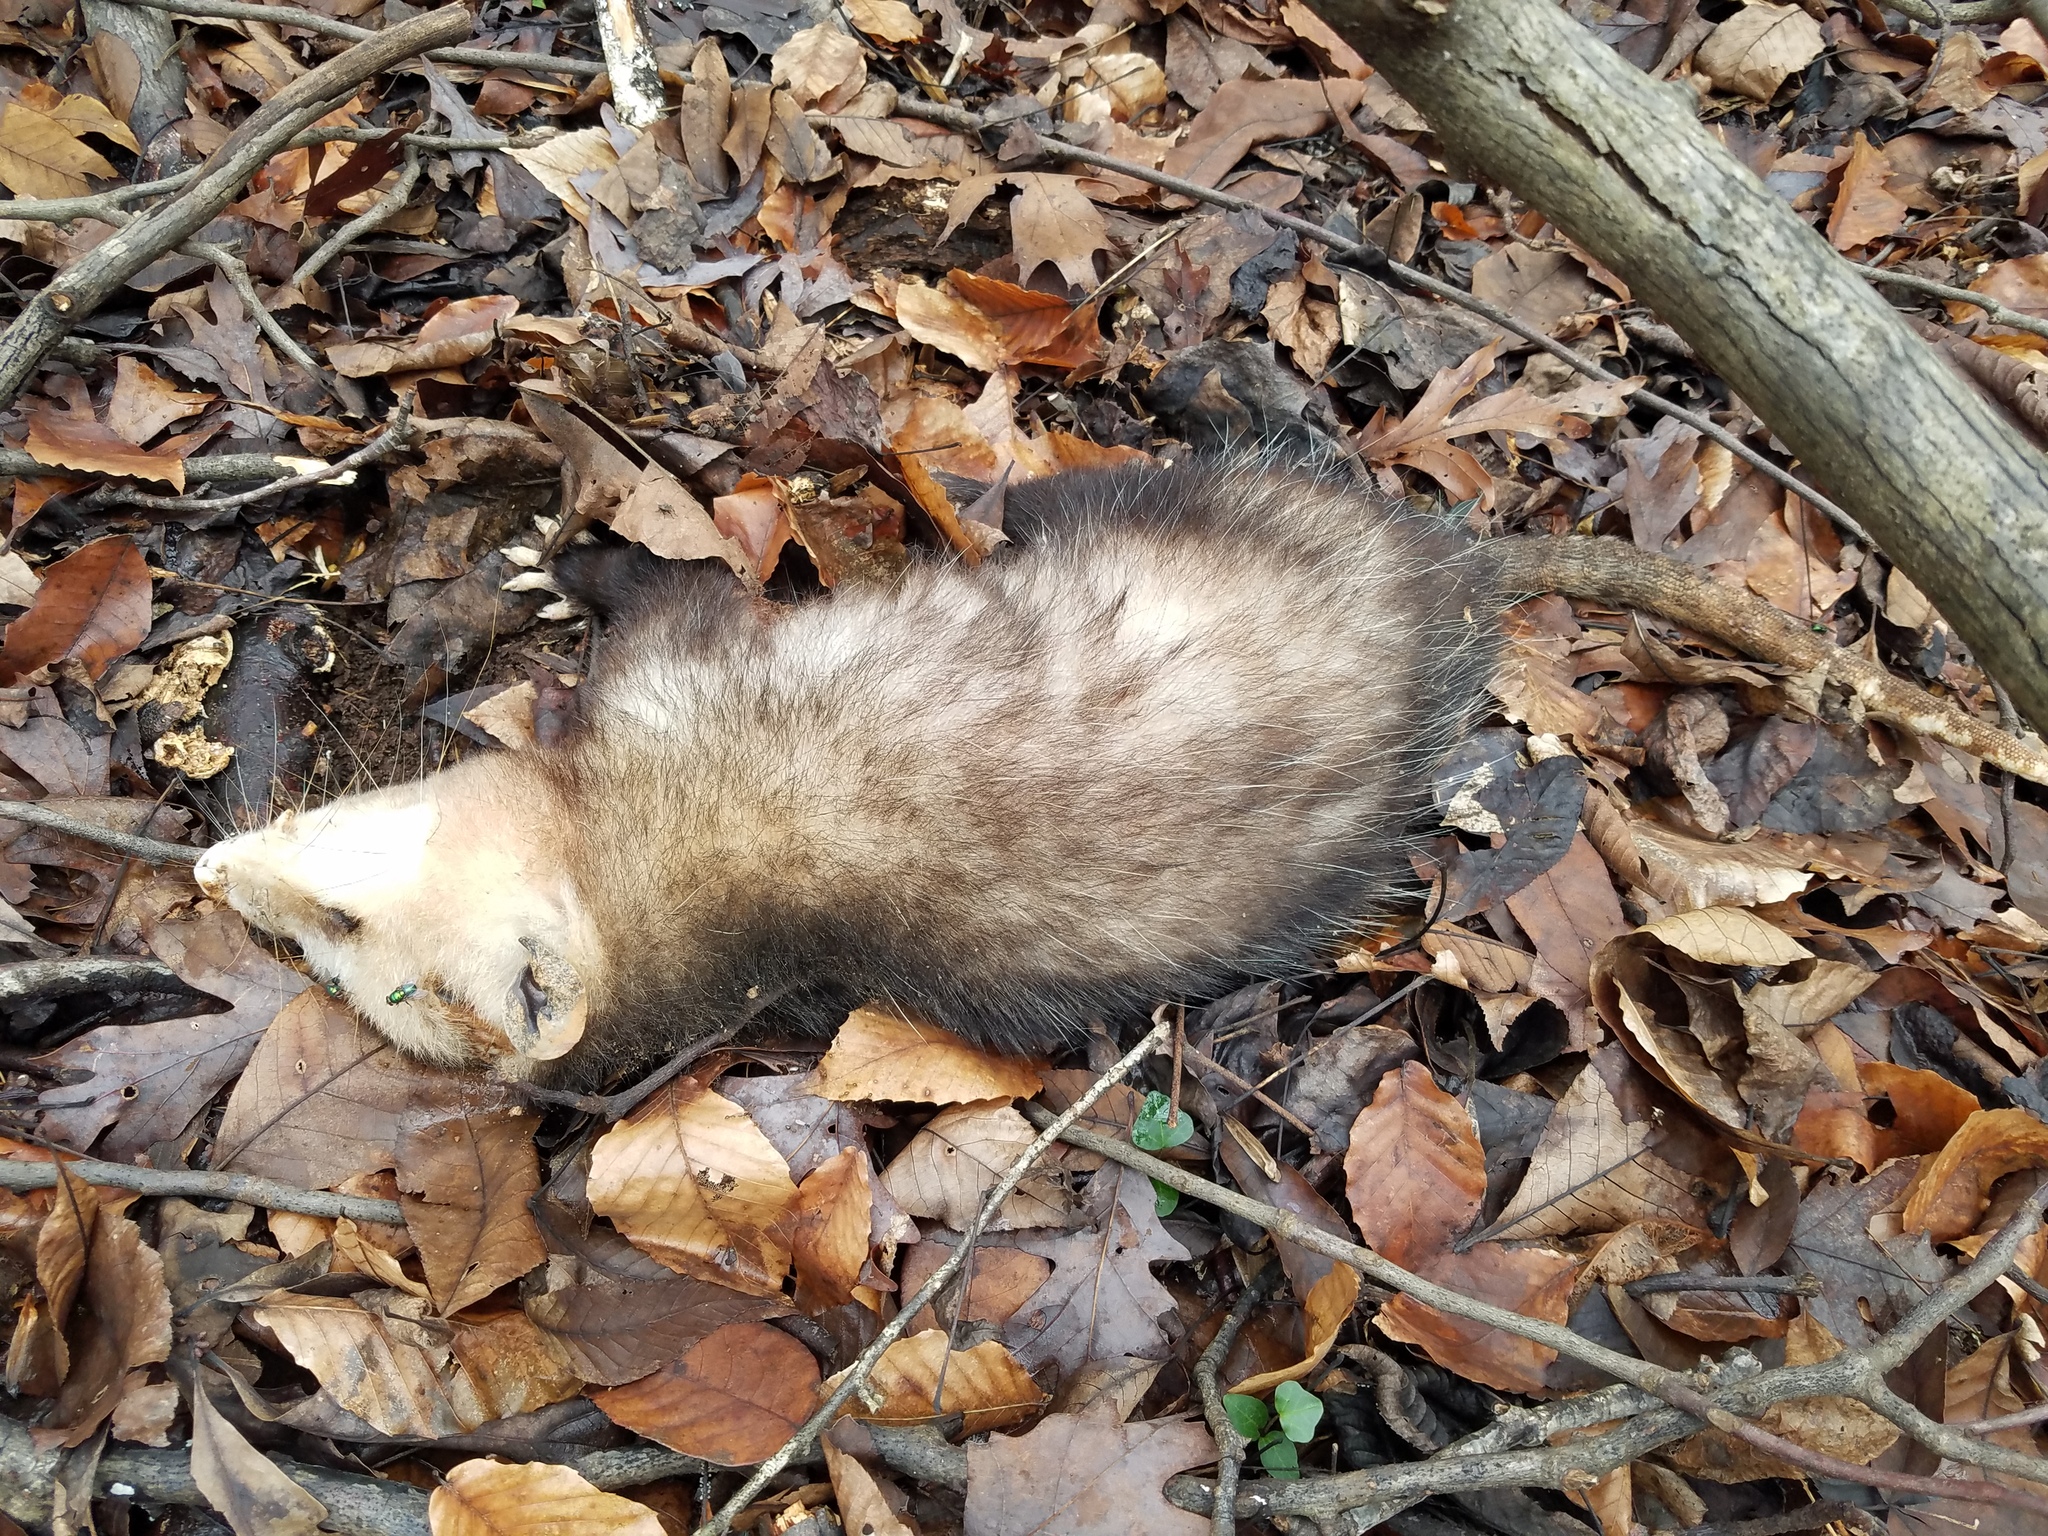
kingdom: Animalia
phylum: Chordata
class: Mammalia
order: Didelphimorphia
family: Didelphidae
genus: Didelphis
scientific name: Didelphis virginiana
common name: Virginia opossum
